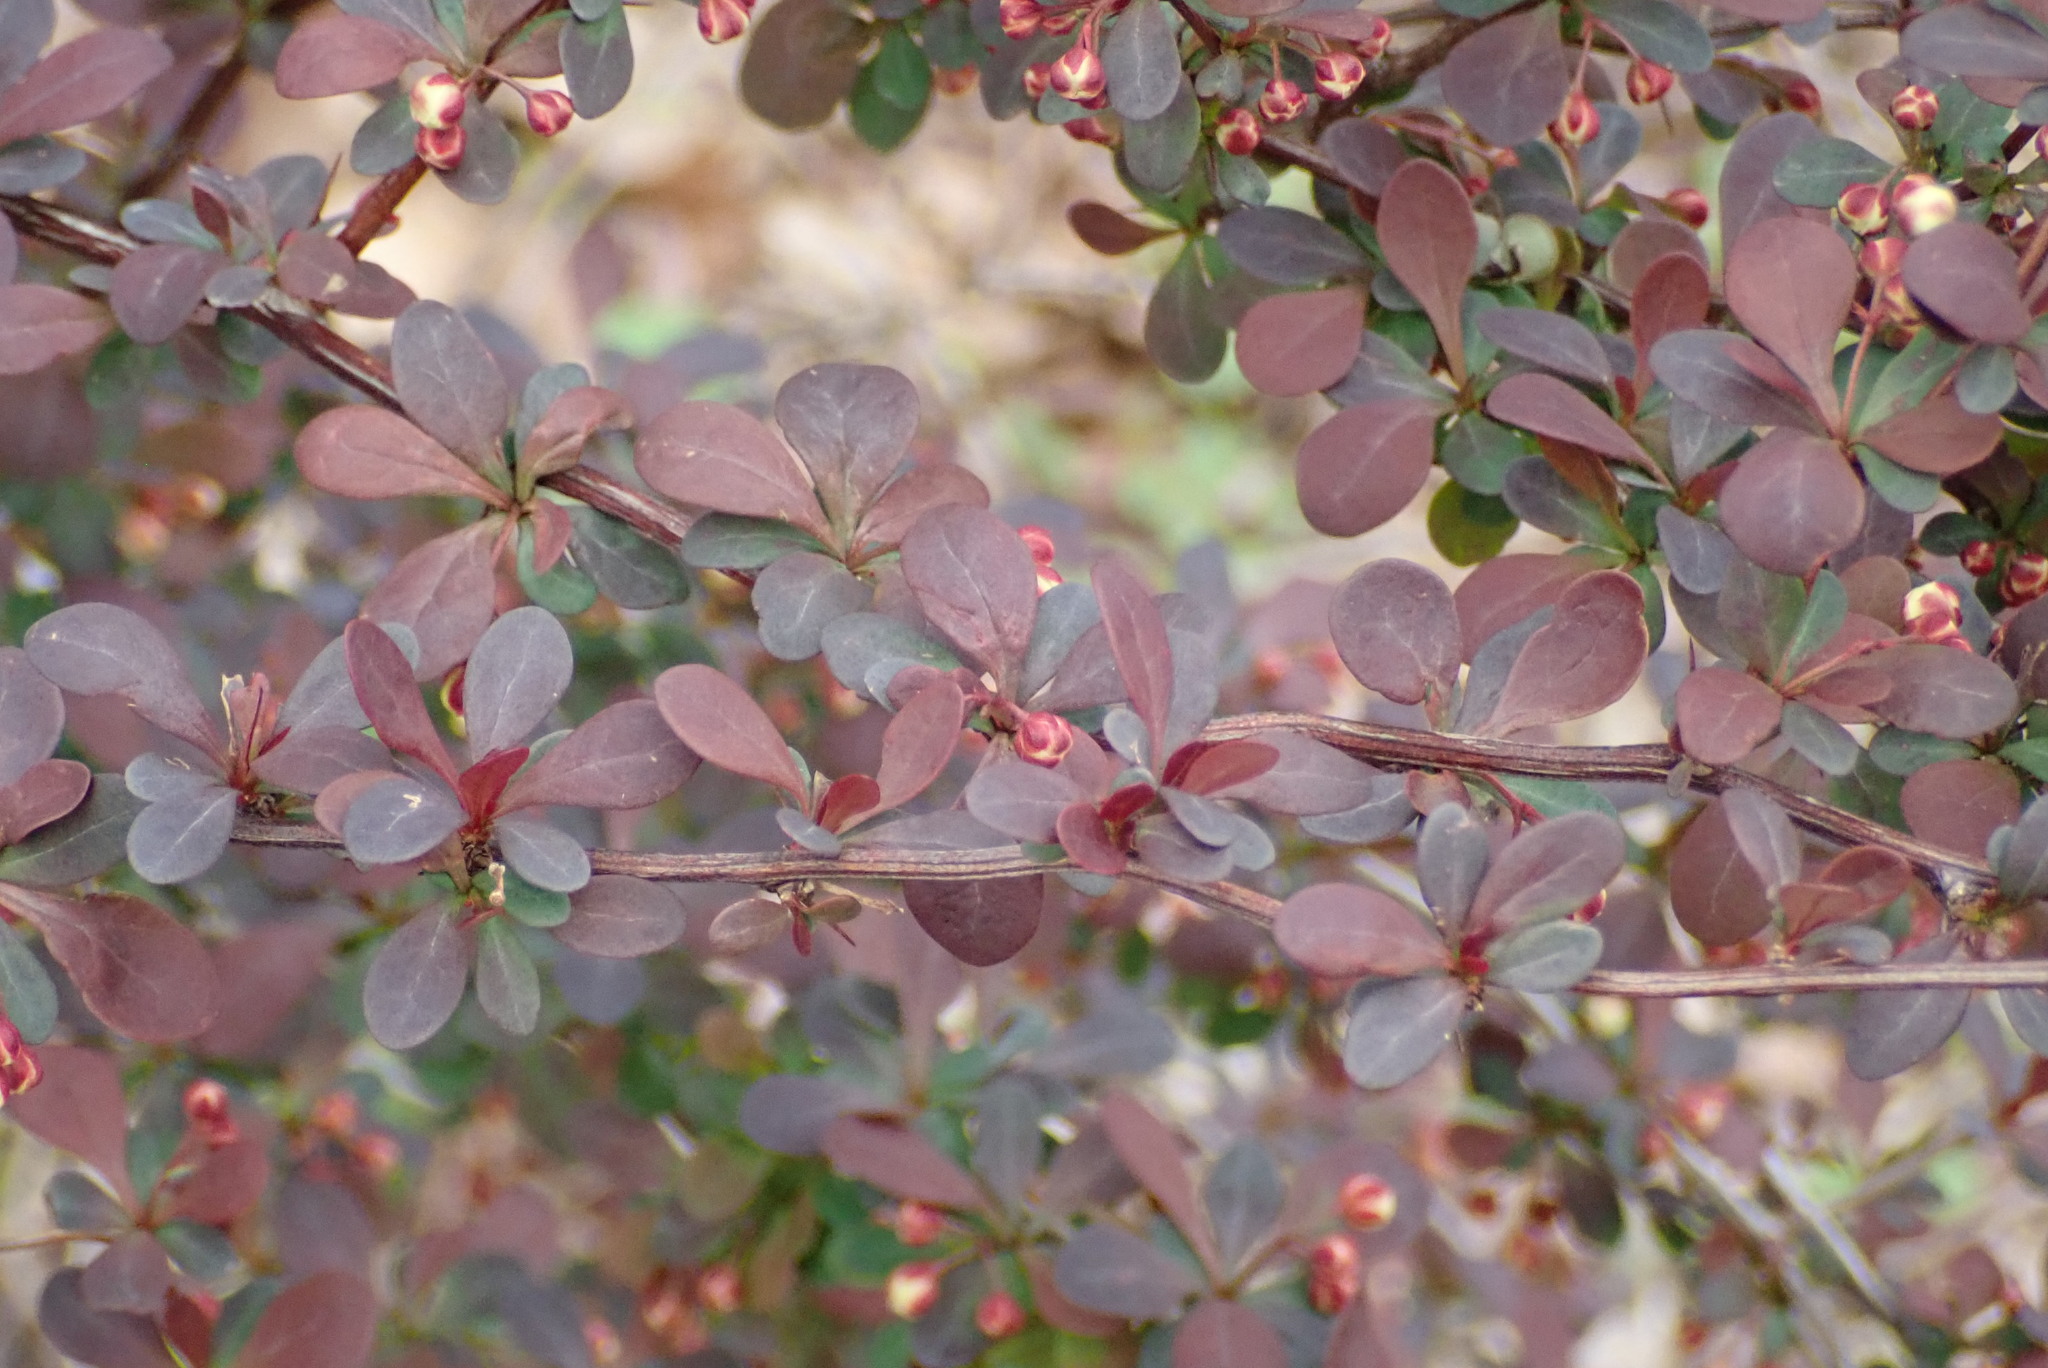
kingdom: Plantae
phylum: Tracheophyta
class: Magnoliopsida
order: Ranunculales
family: Berberidaceae
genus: Berberis
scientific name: Berberis thunbergii
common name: Japanese barberry
